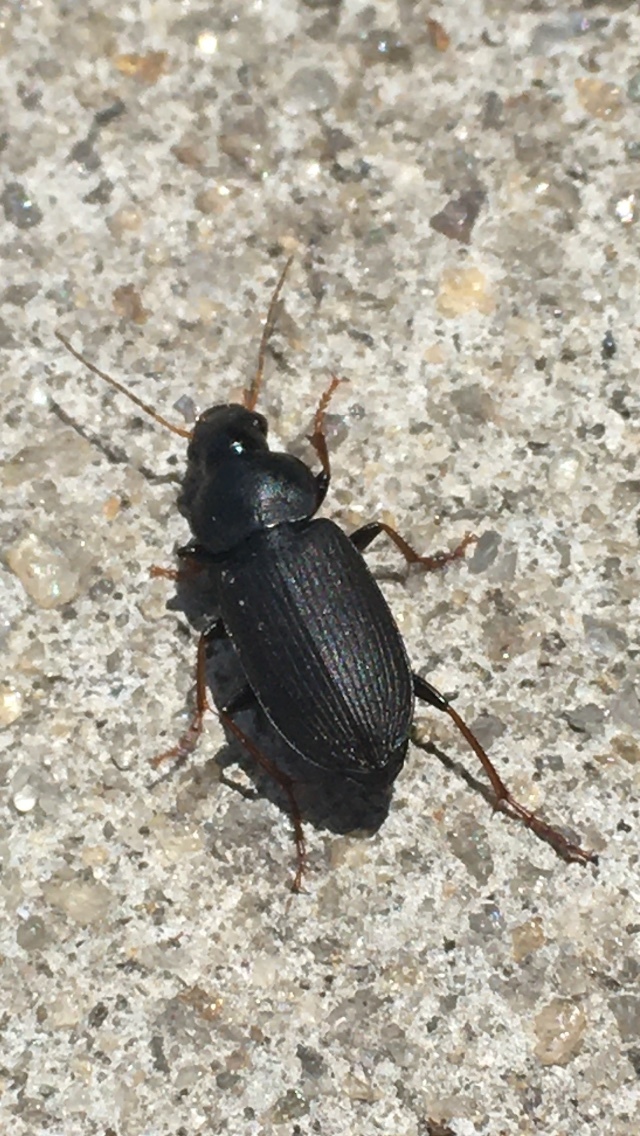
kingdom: Animalia
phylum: Arthropoda
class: Insecta
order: Coleoptera
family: Carabidae
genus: Amphasia
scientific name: Amphasia sericea
